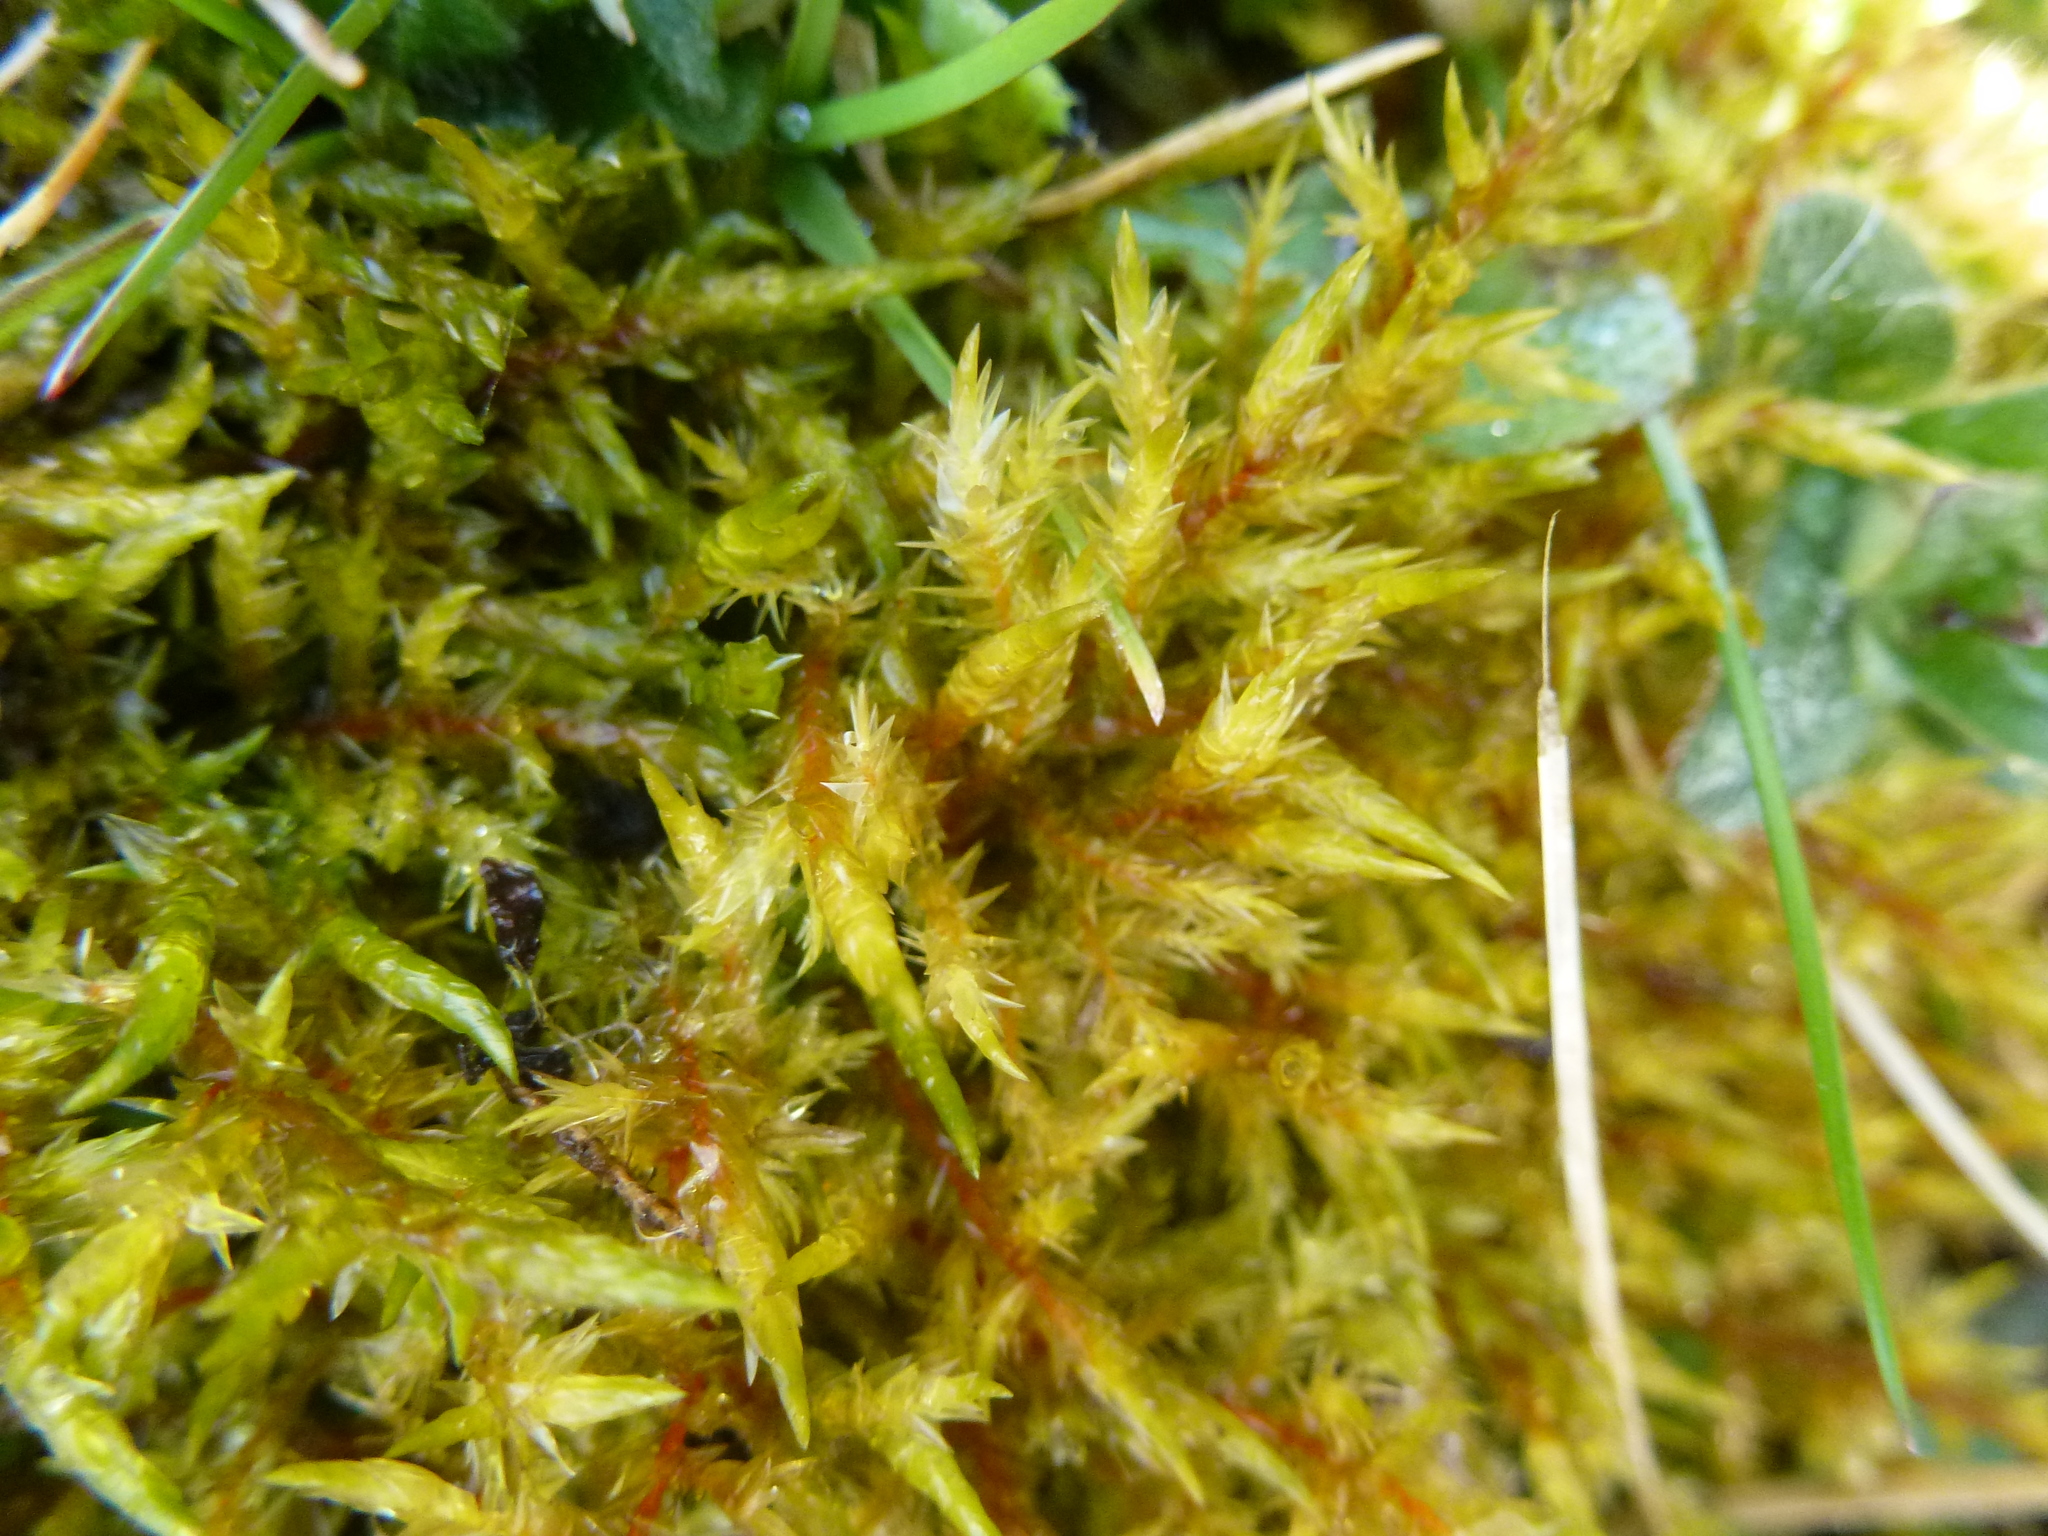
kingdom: Plantae
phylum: Bryophyta
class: Bryopsida
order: Hypnales
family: Pylaisiaceae
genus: Calliergonella
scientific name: Calliergonella cuspidata
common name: Common large wetland moss
